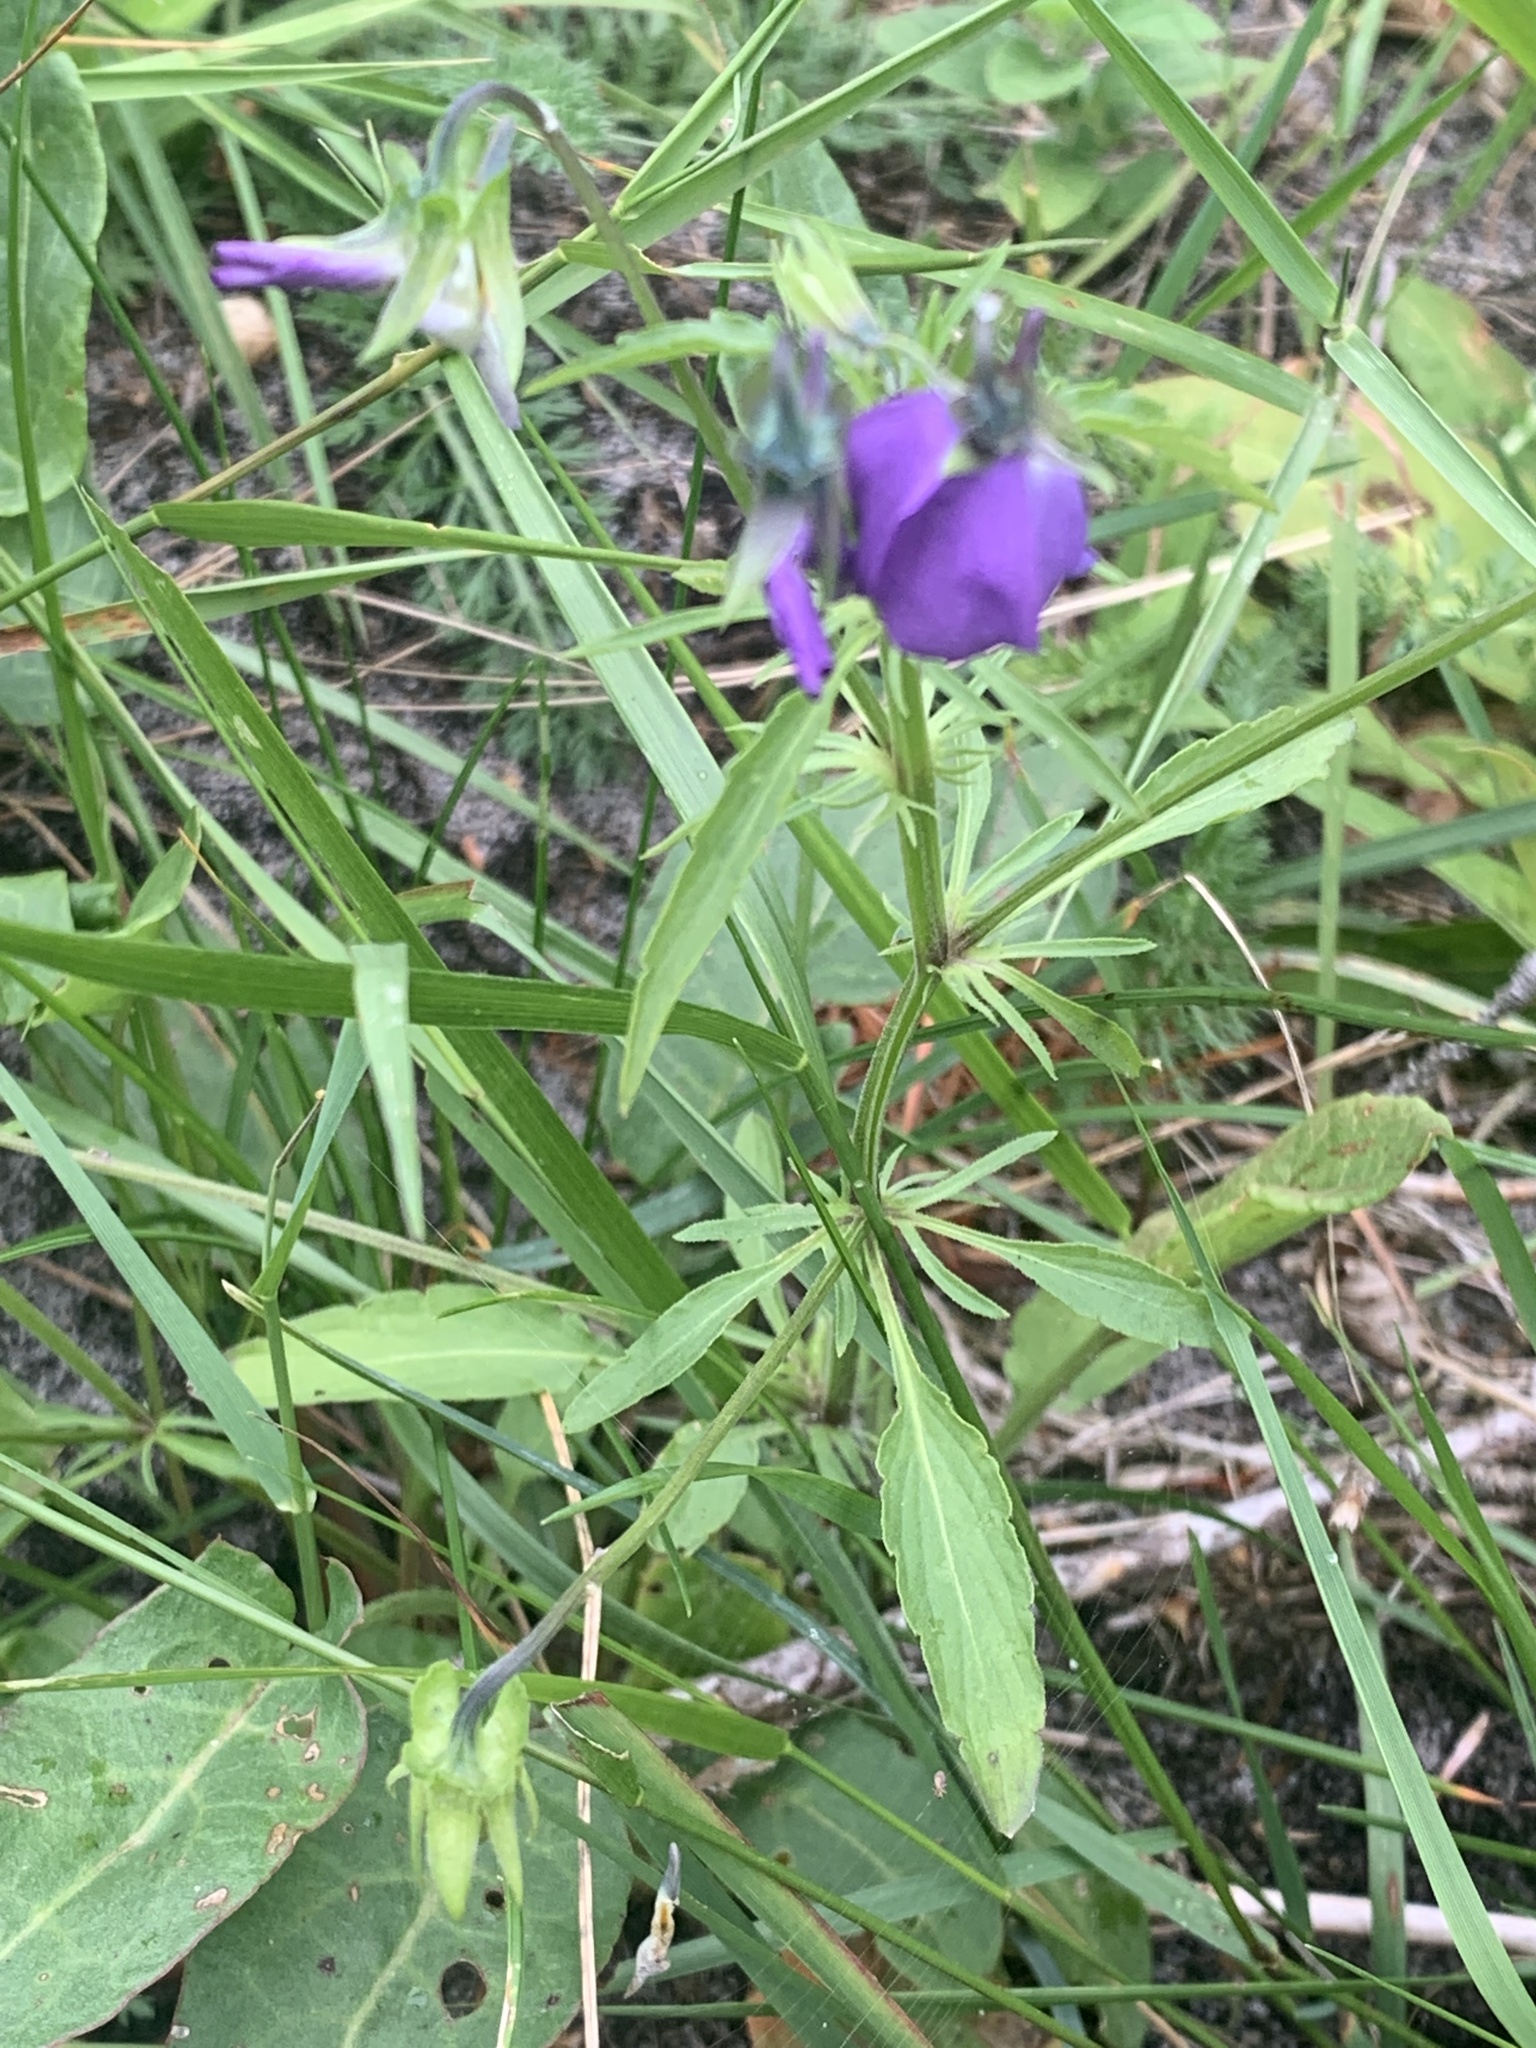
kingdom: Plantae
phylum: Tracheophyta
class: Magnoliopsida
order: Malpighiales
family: Violaceae
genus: Viola
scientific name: Viola tricolor
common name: Pansy
